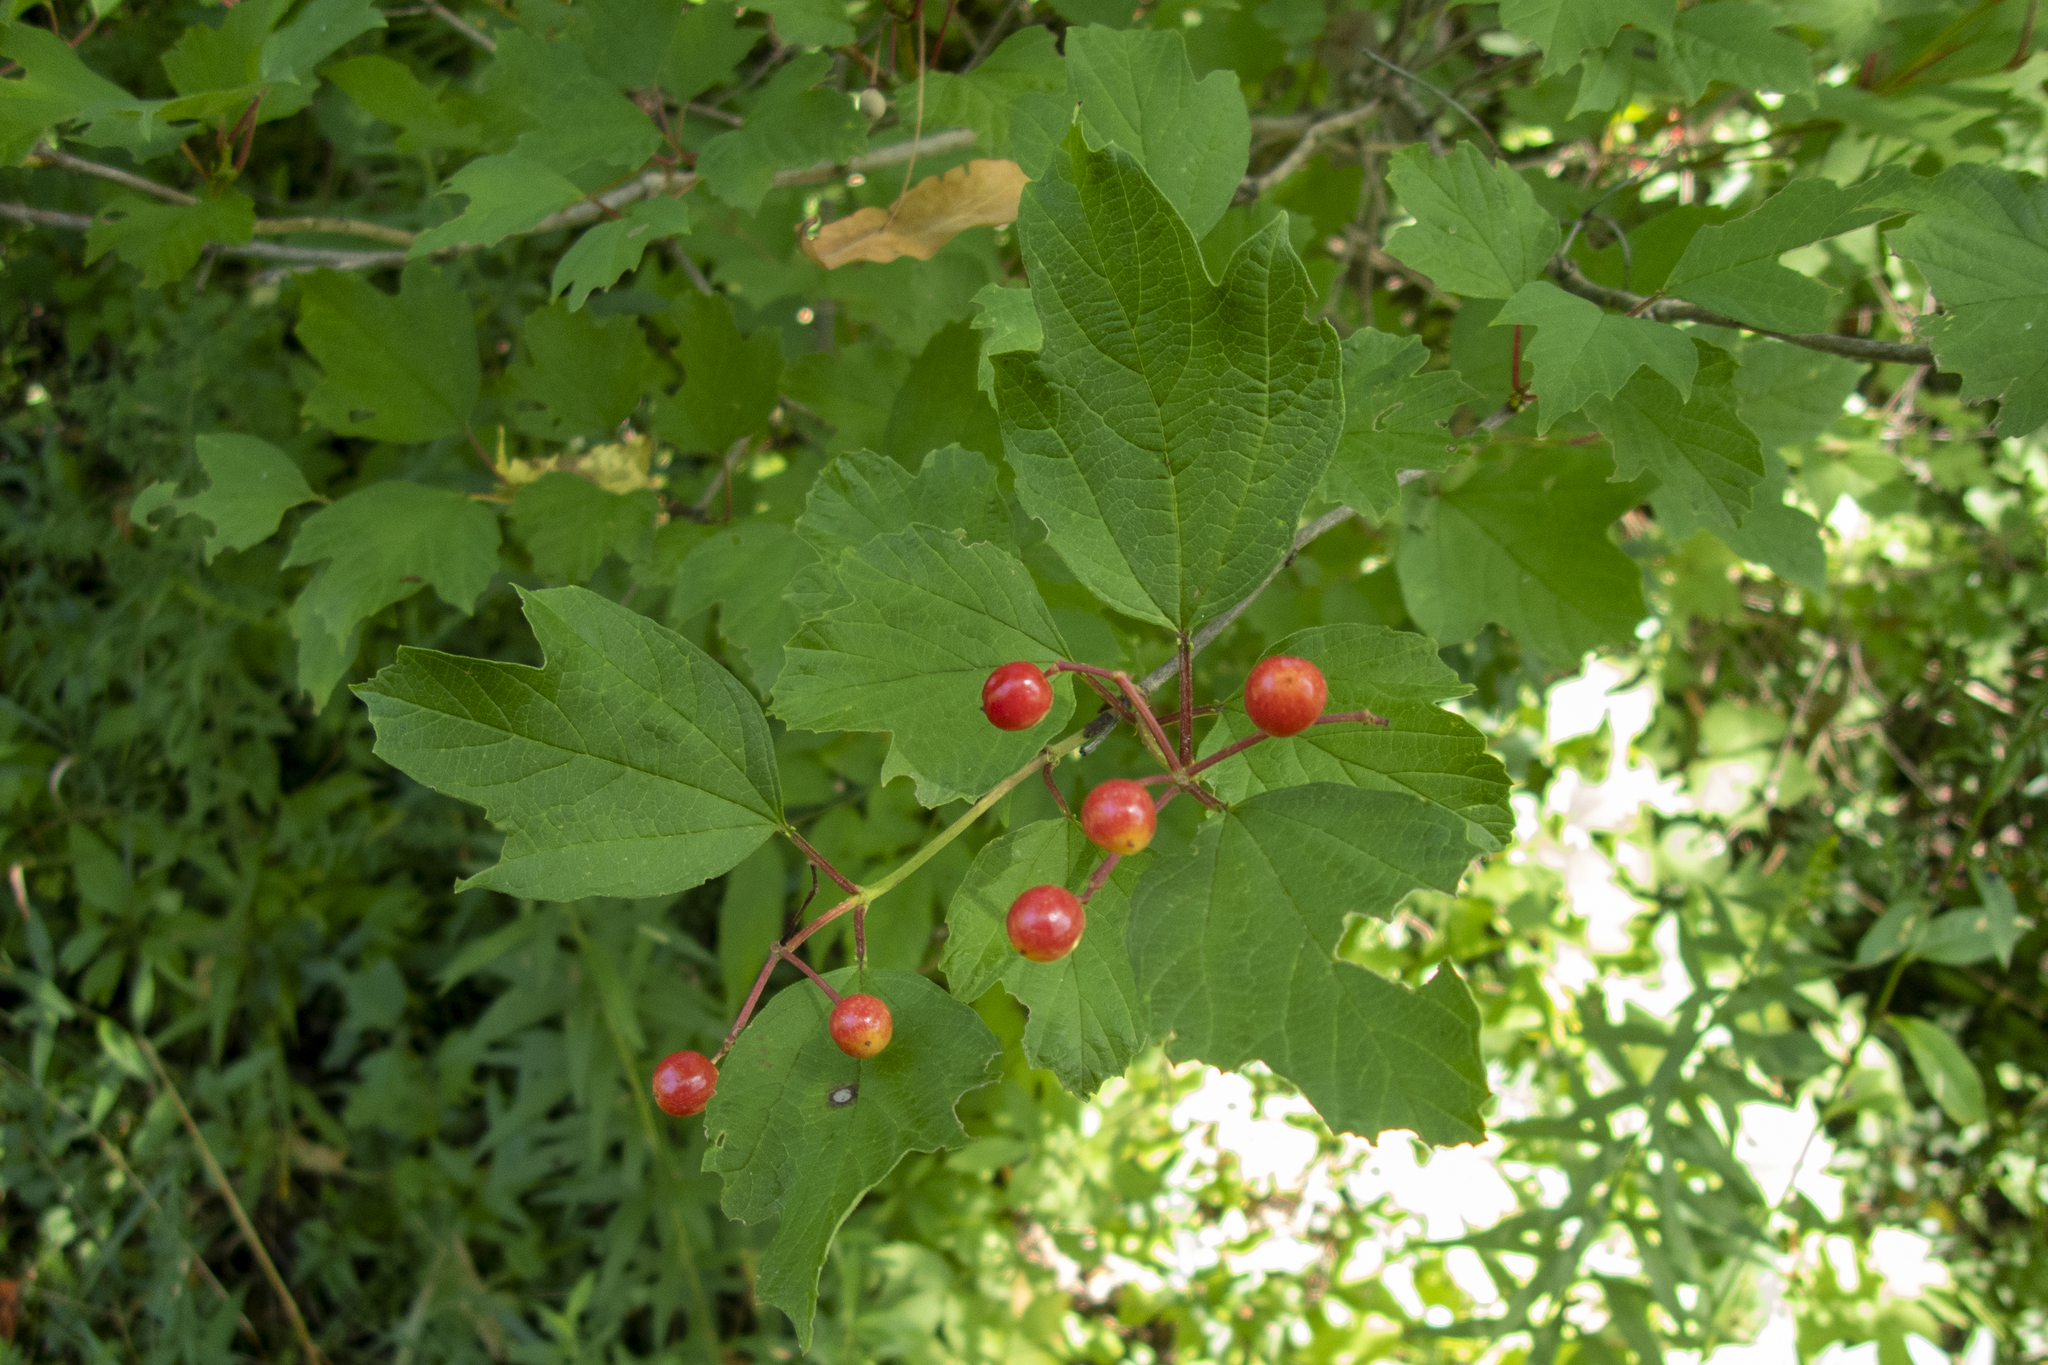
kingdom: Plantae
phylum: Tracheophyta
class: Magnoliopsida
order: Dipsacales
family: Viburnaceae
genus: Viburnum
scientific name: Viburnum opulus
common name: Guelder-rose
